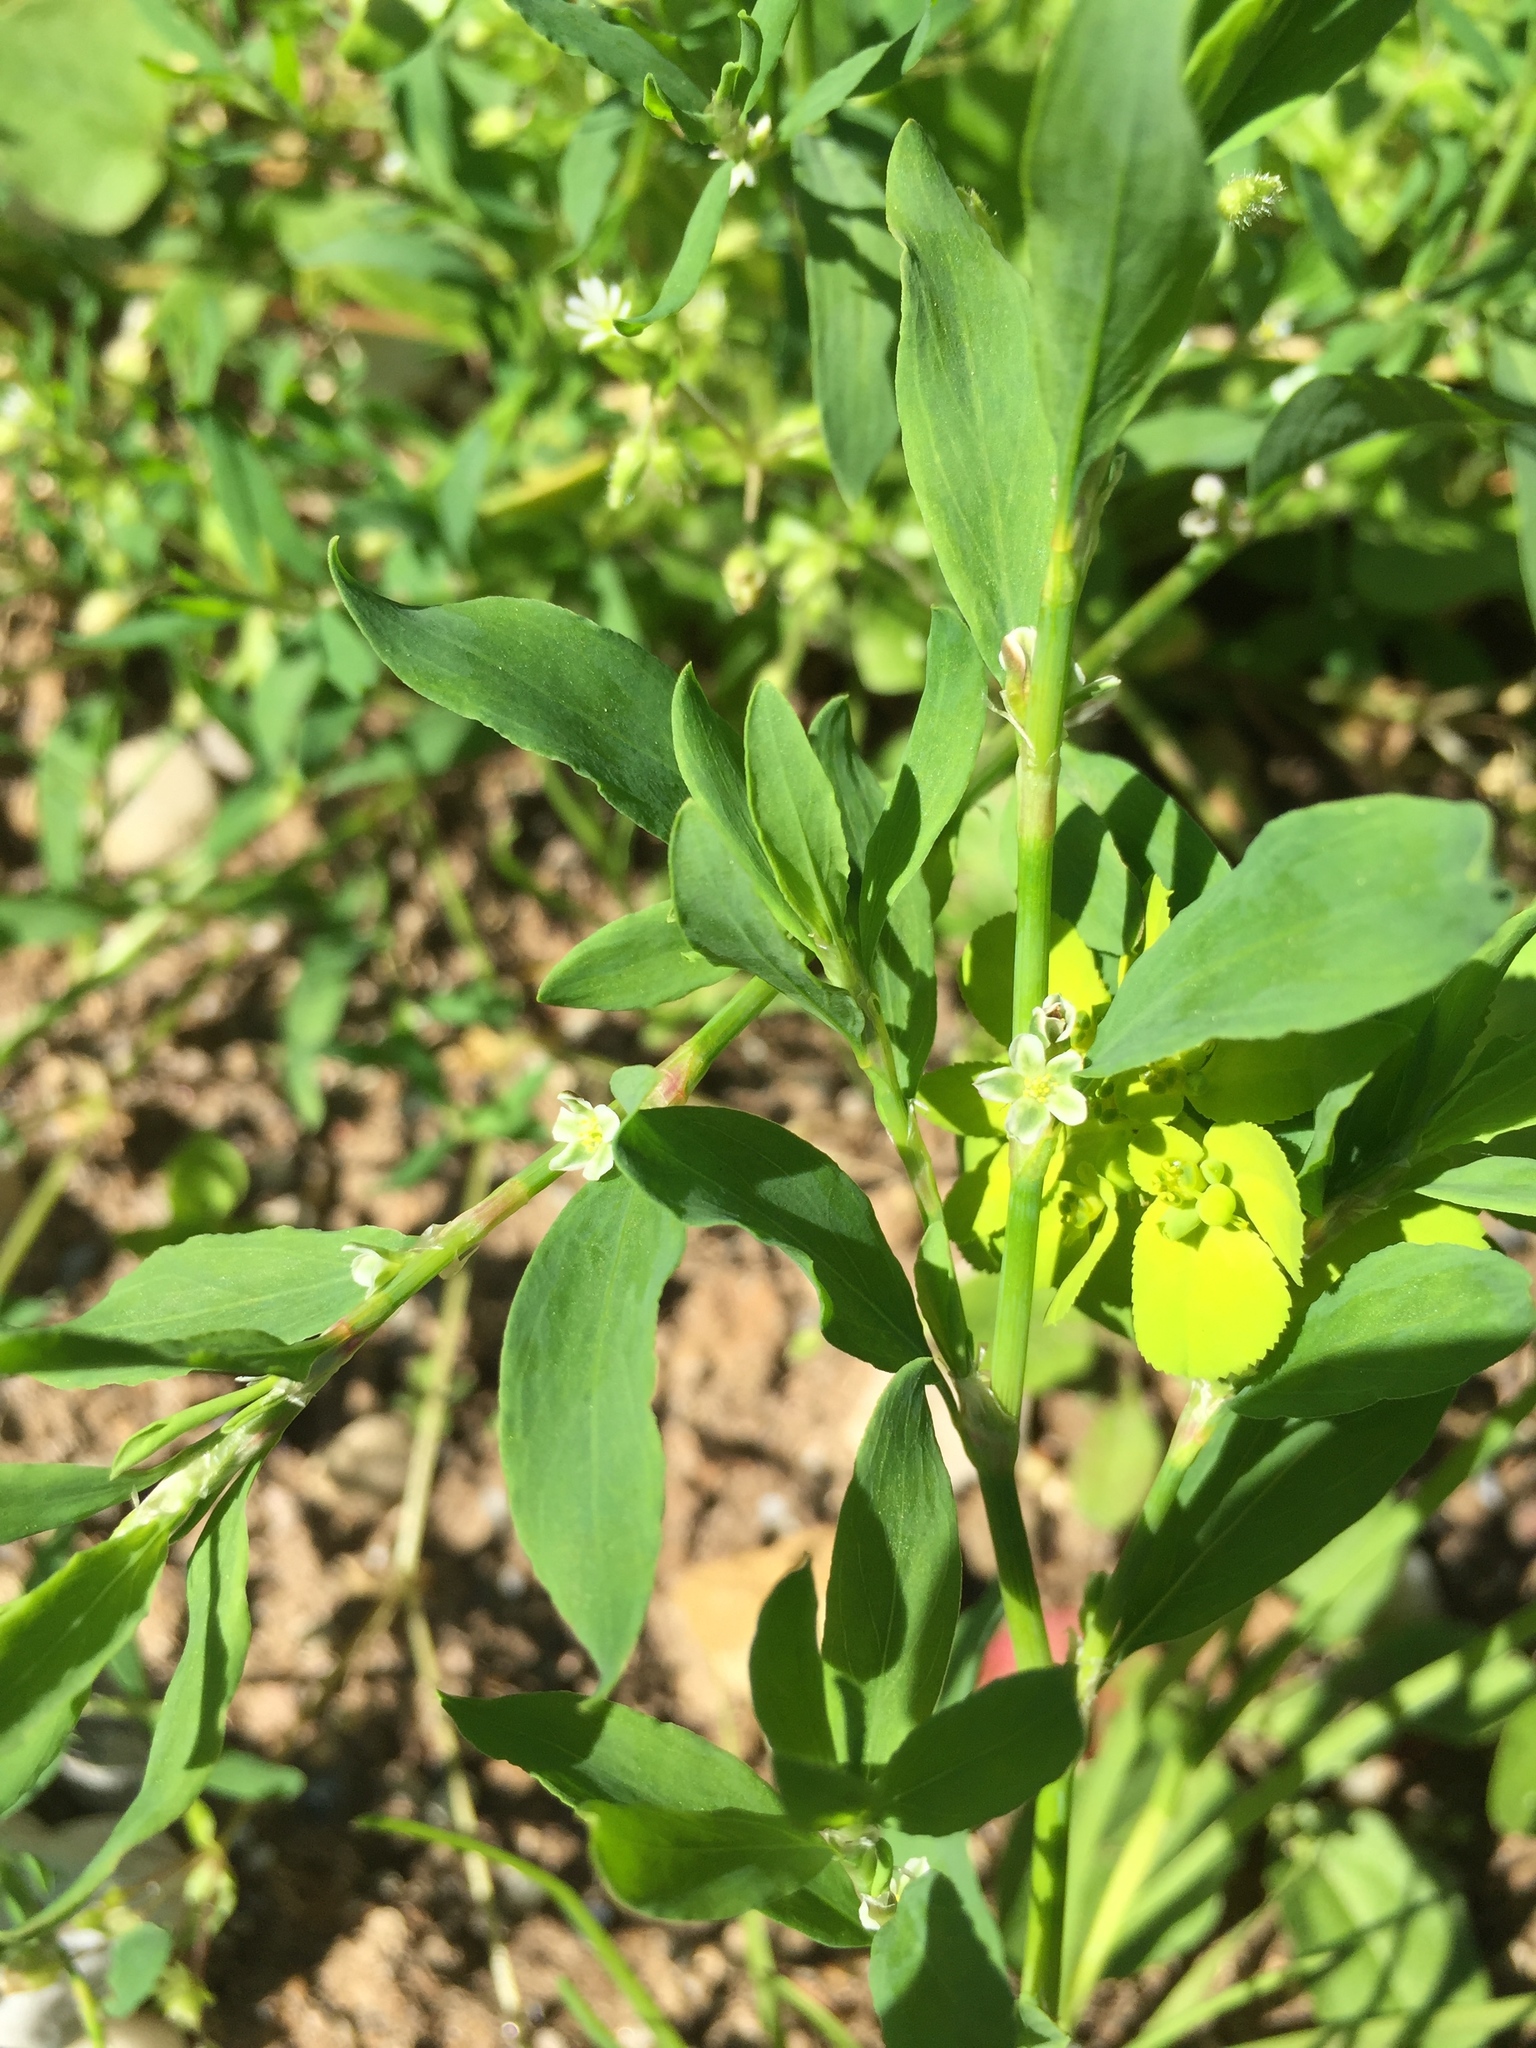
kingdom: Plantae
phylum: Tracheophyta
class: Magnoliopsida
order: Caryophyllales
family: Polygonaceae
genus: Polygonum
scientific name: Polygonum aviculare
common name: Prostrate knotweed
